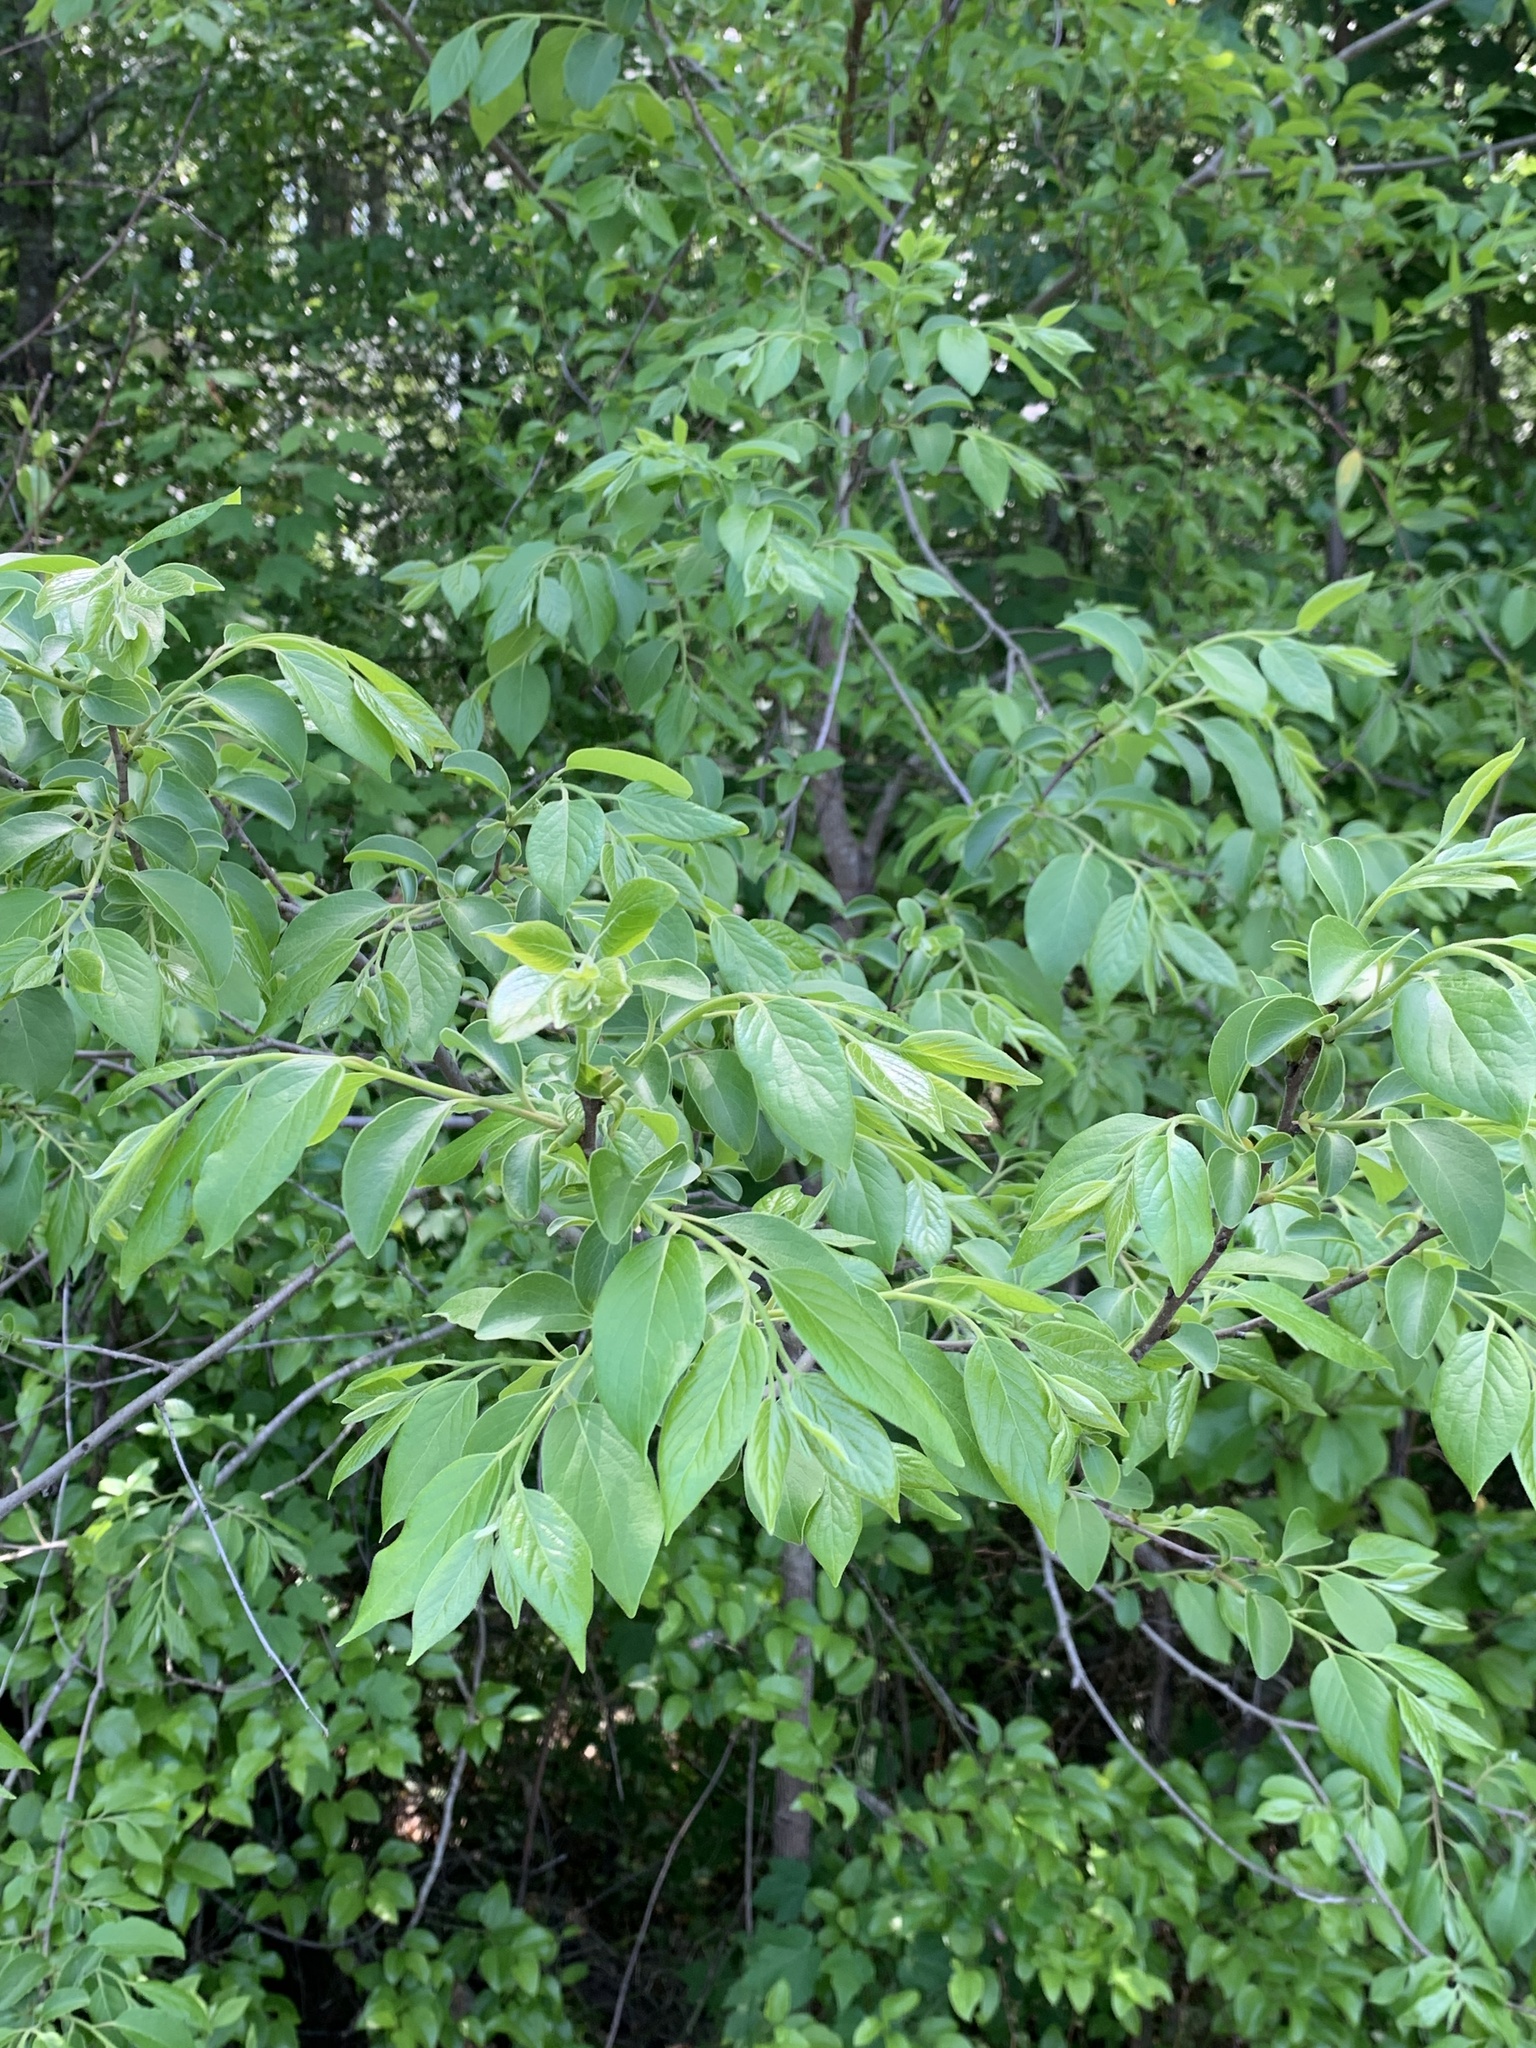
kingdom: Plantae
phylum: Tracheophyta
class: Magnoliopsida
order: Ericales
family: Ebenaceae
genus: Diospyros
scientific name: Diospyros virginiana
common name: Persimmon
